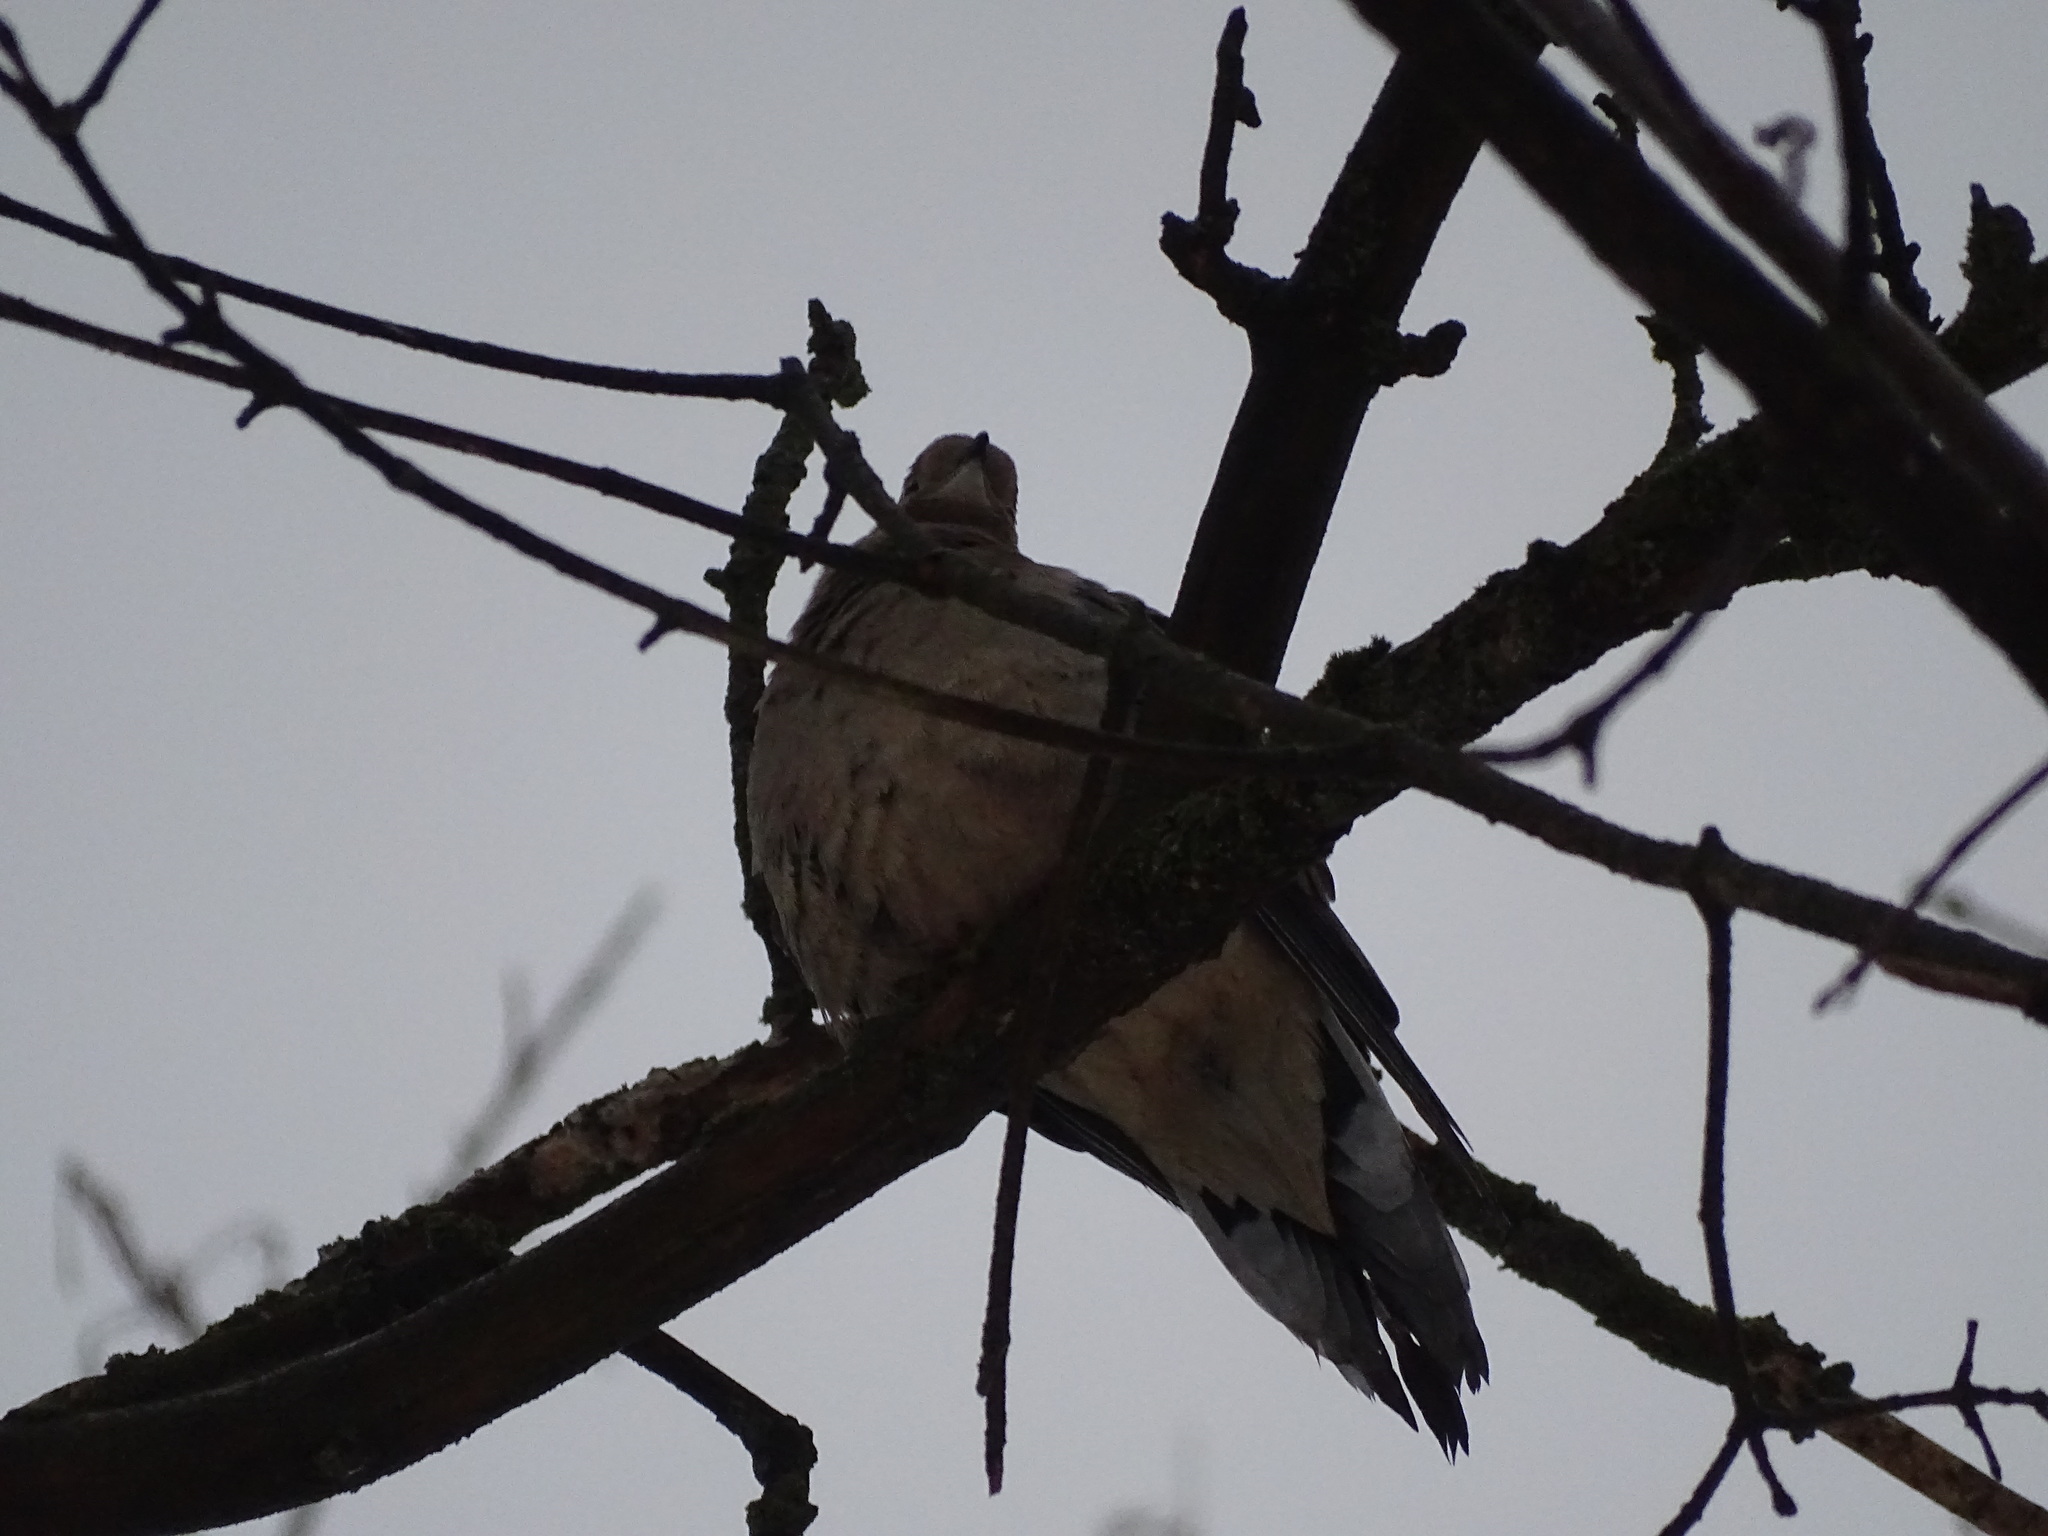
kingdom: Animalia
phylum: Chordata
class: Aves
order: Columbiformes
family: Columbidae
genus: Zenaida
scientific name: Zenaida macroura
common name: Mourning dove
